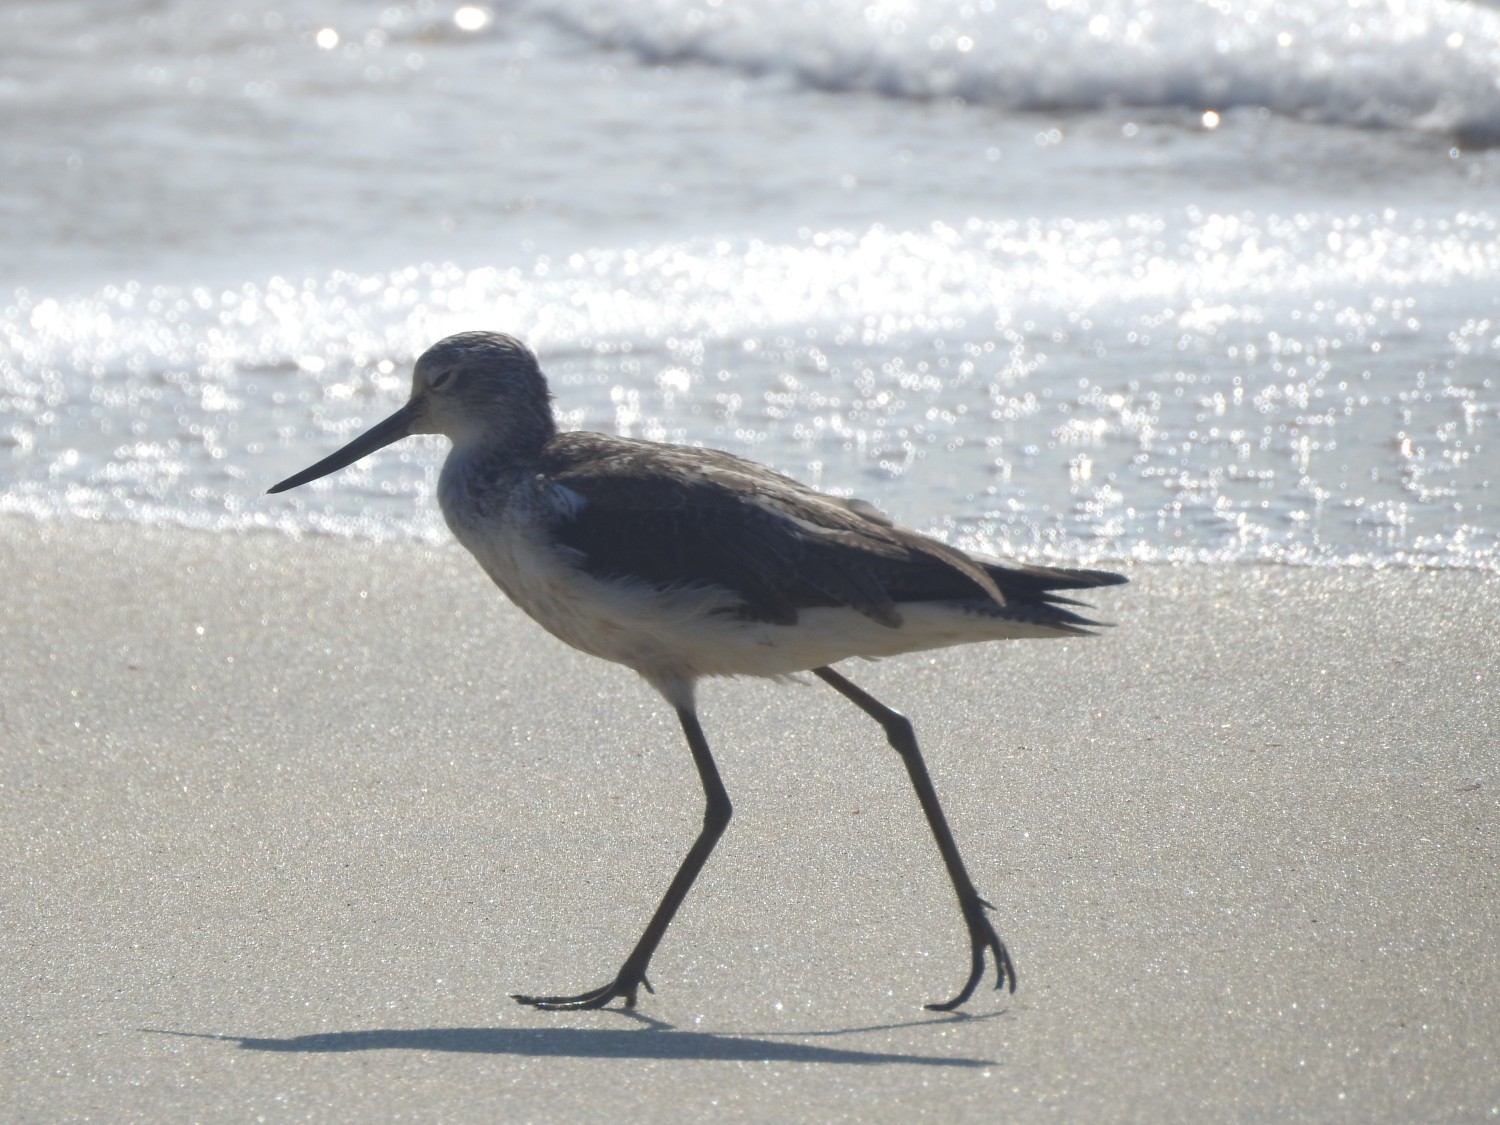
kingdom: Animalia
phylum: Chordata
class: Aves
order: Charadriiformes
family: Scolopacidae
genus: Tringa
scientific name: Tringa nebularia
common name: Common greenshank
